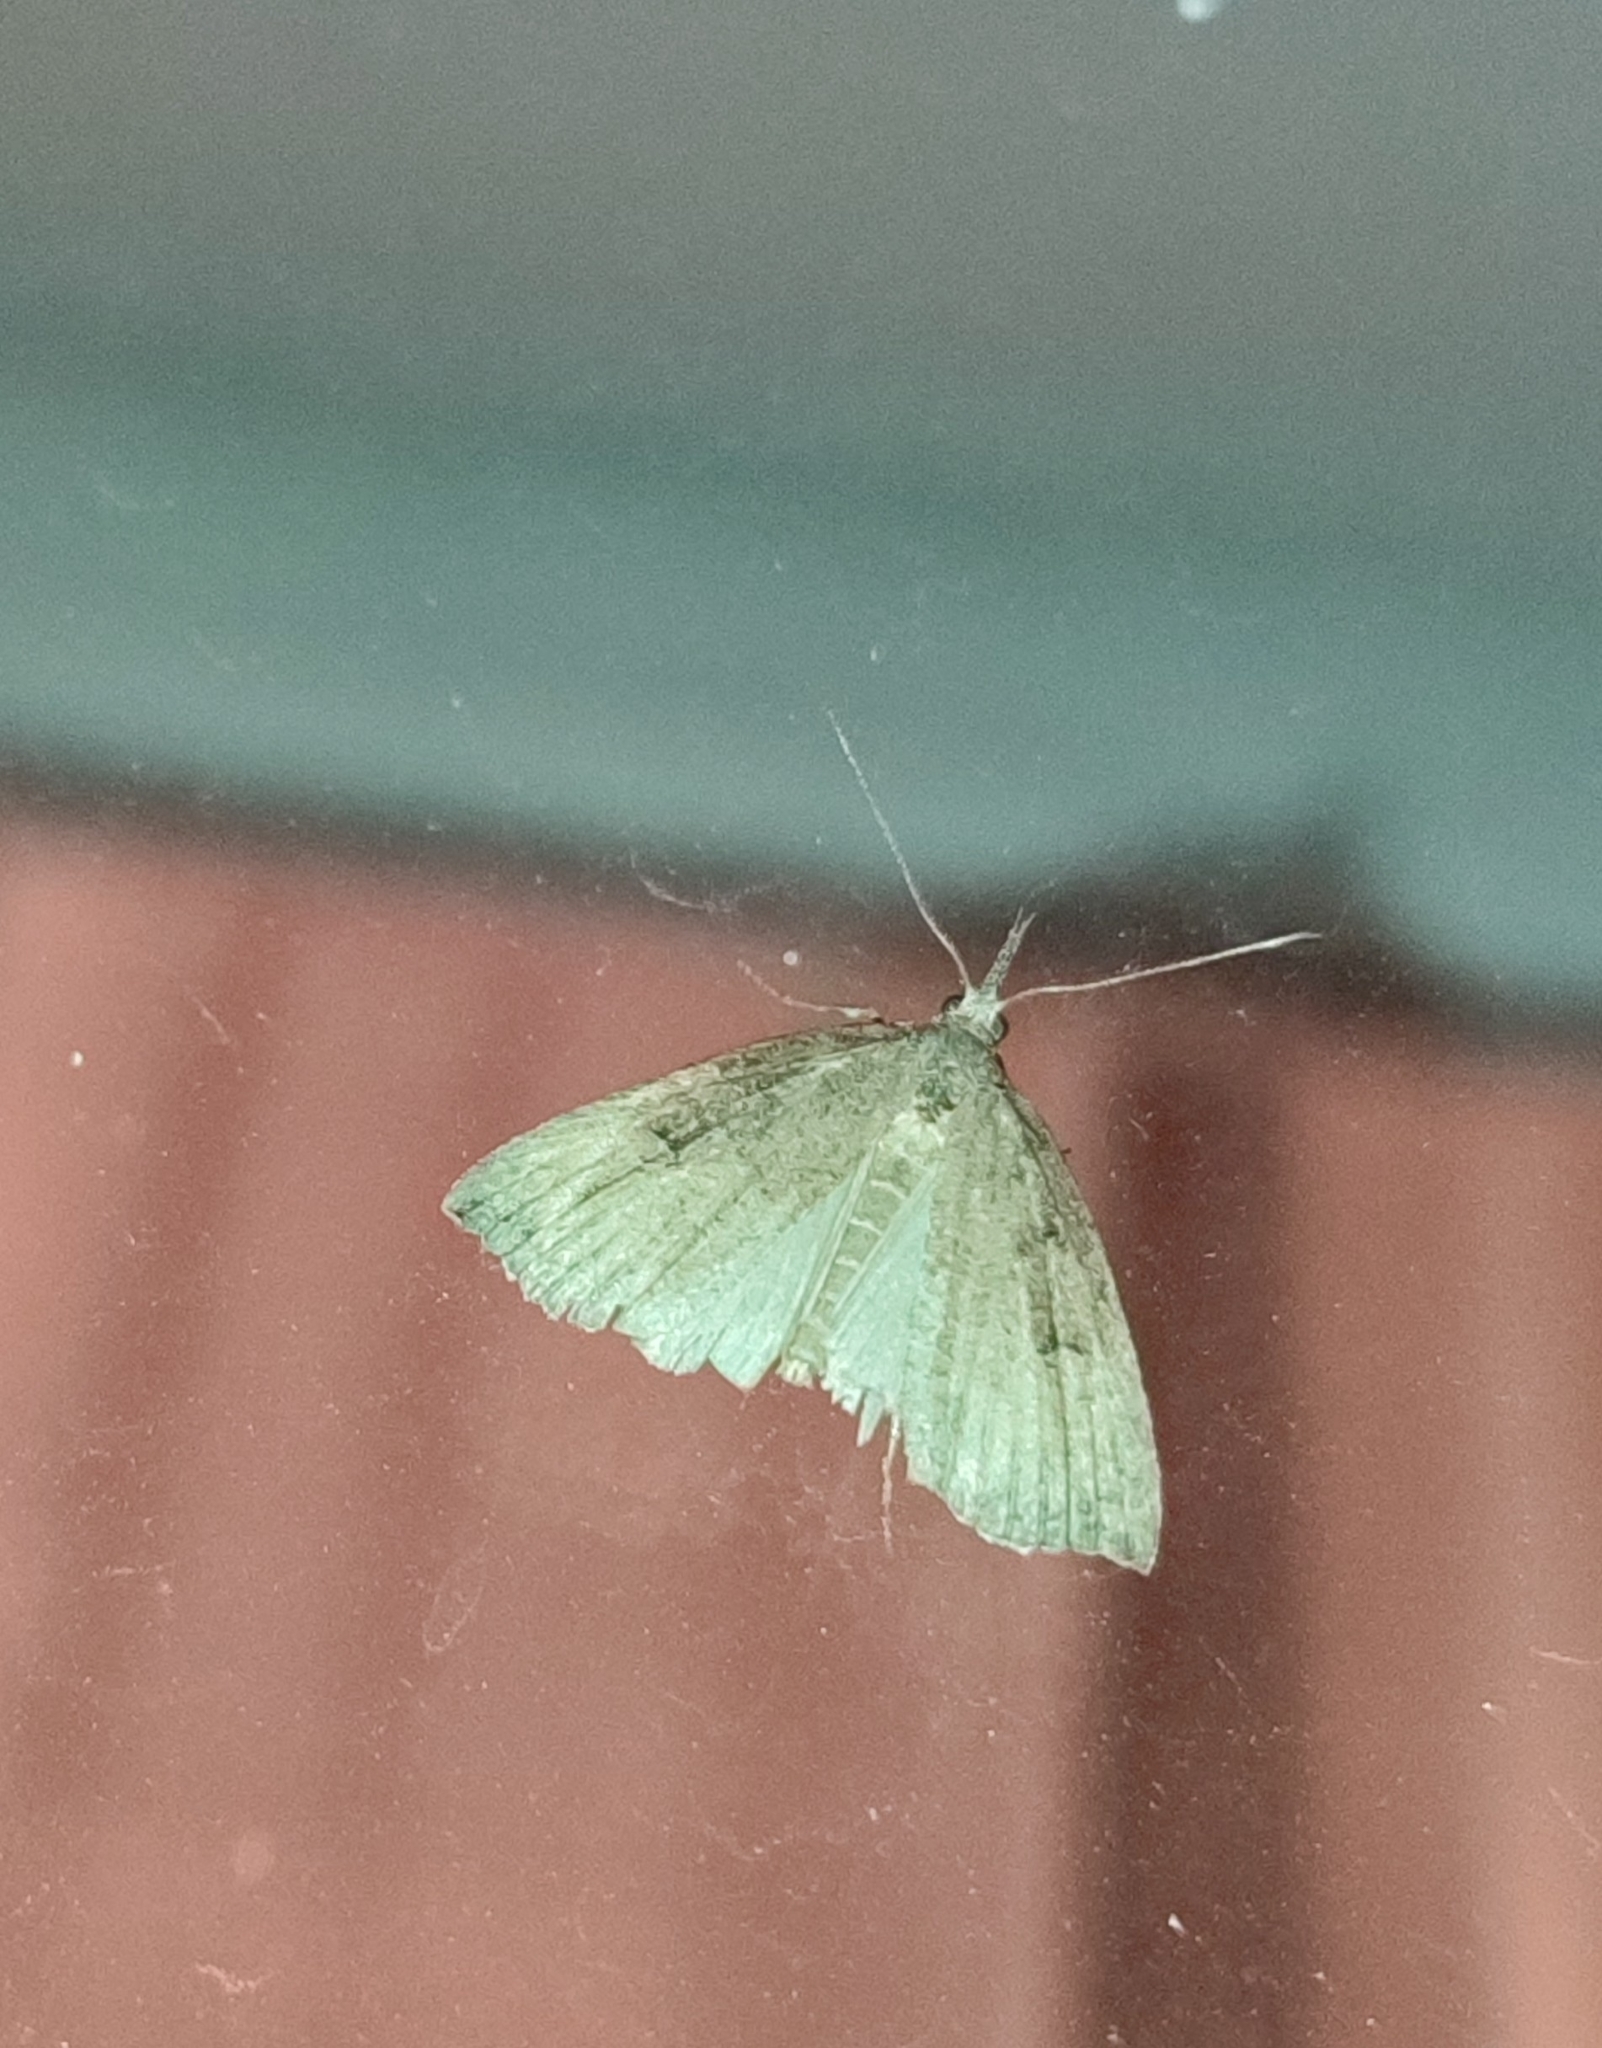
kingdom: Animalia
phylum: Arthropoda
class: Insecta
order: Lepidoptera
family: Erebidae
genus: Hypena
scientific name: Hypena rostralis
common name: Buttoned snout
